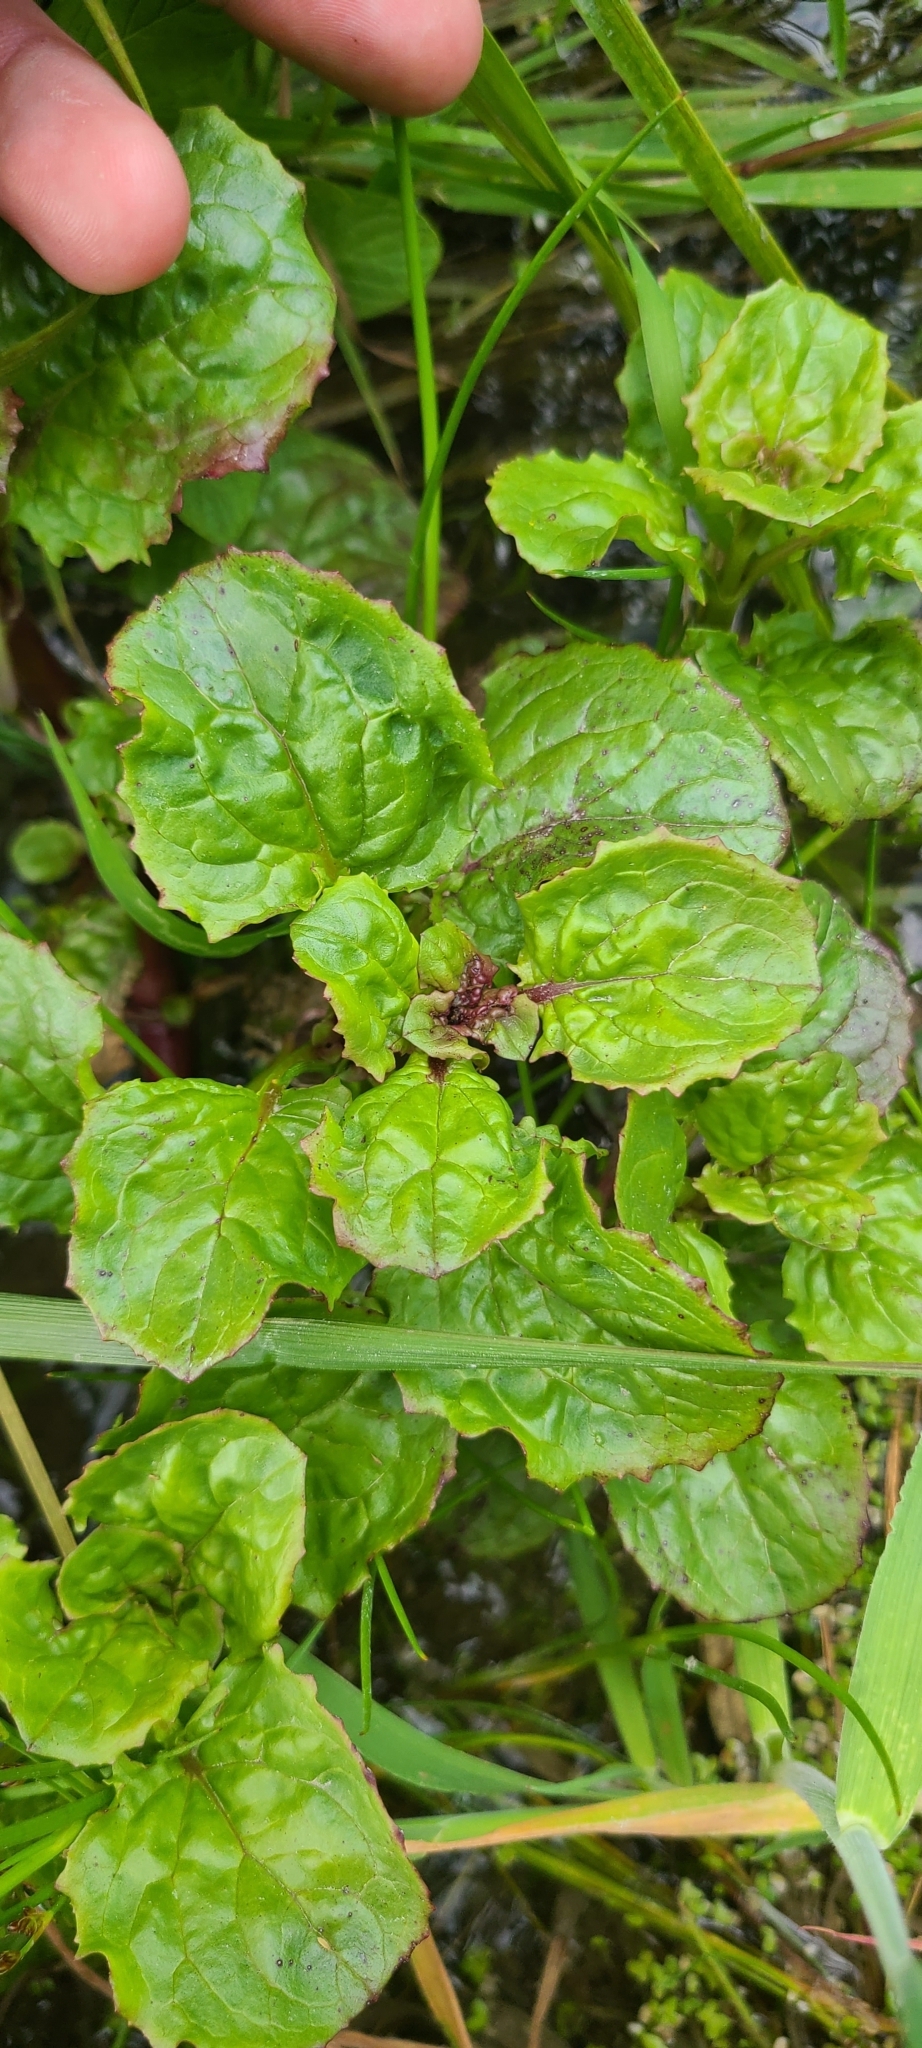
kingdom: Plantae
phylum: Tracheophyta
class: Magnoliopsida
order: Lamiales
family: Phrymaceae
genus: Erythranthe
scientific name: Erythranthe guttata
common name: Monkeyflower
